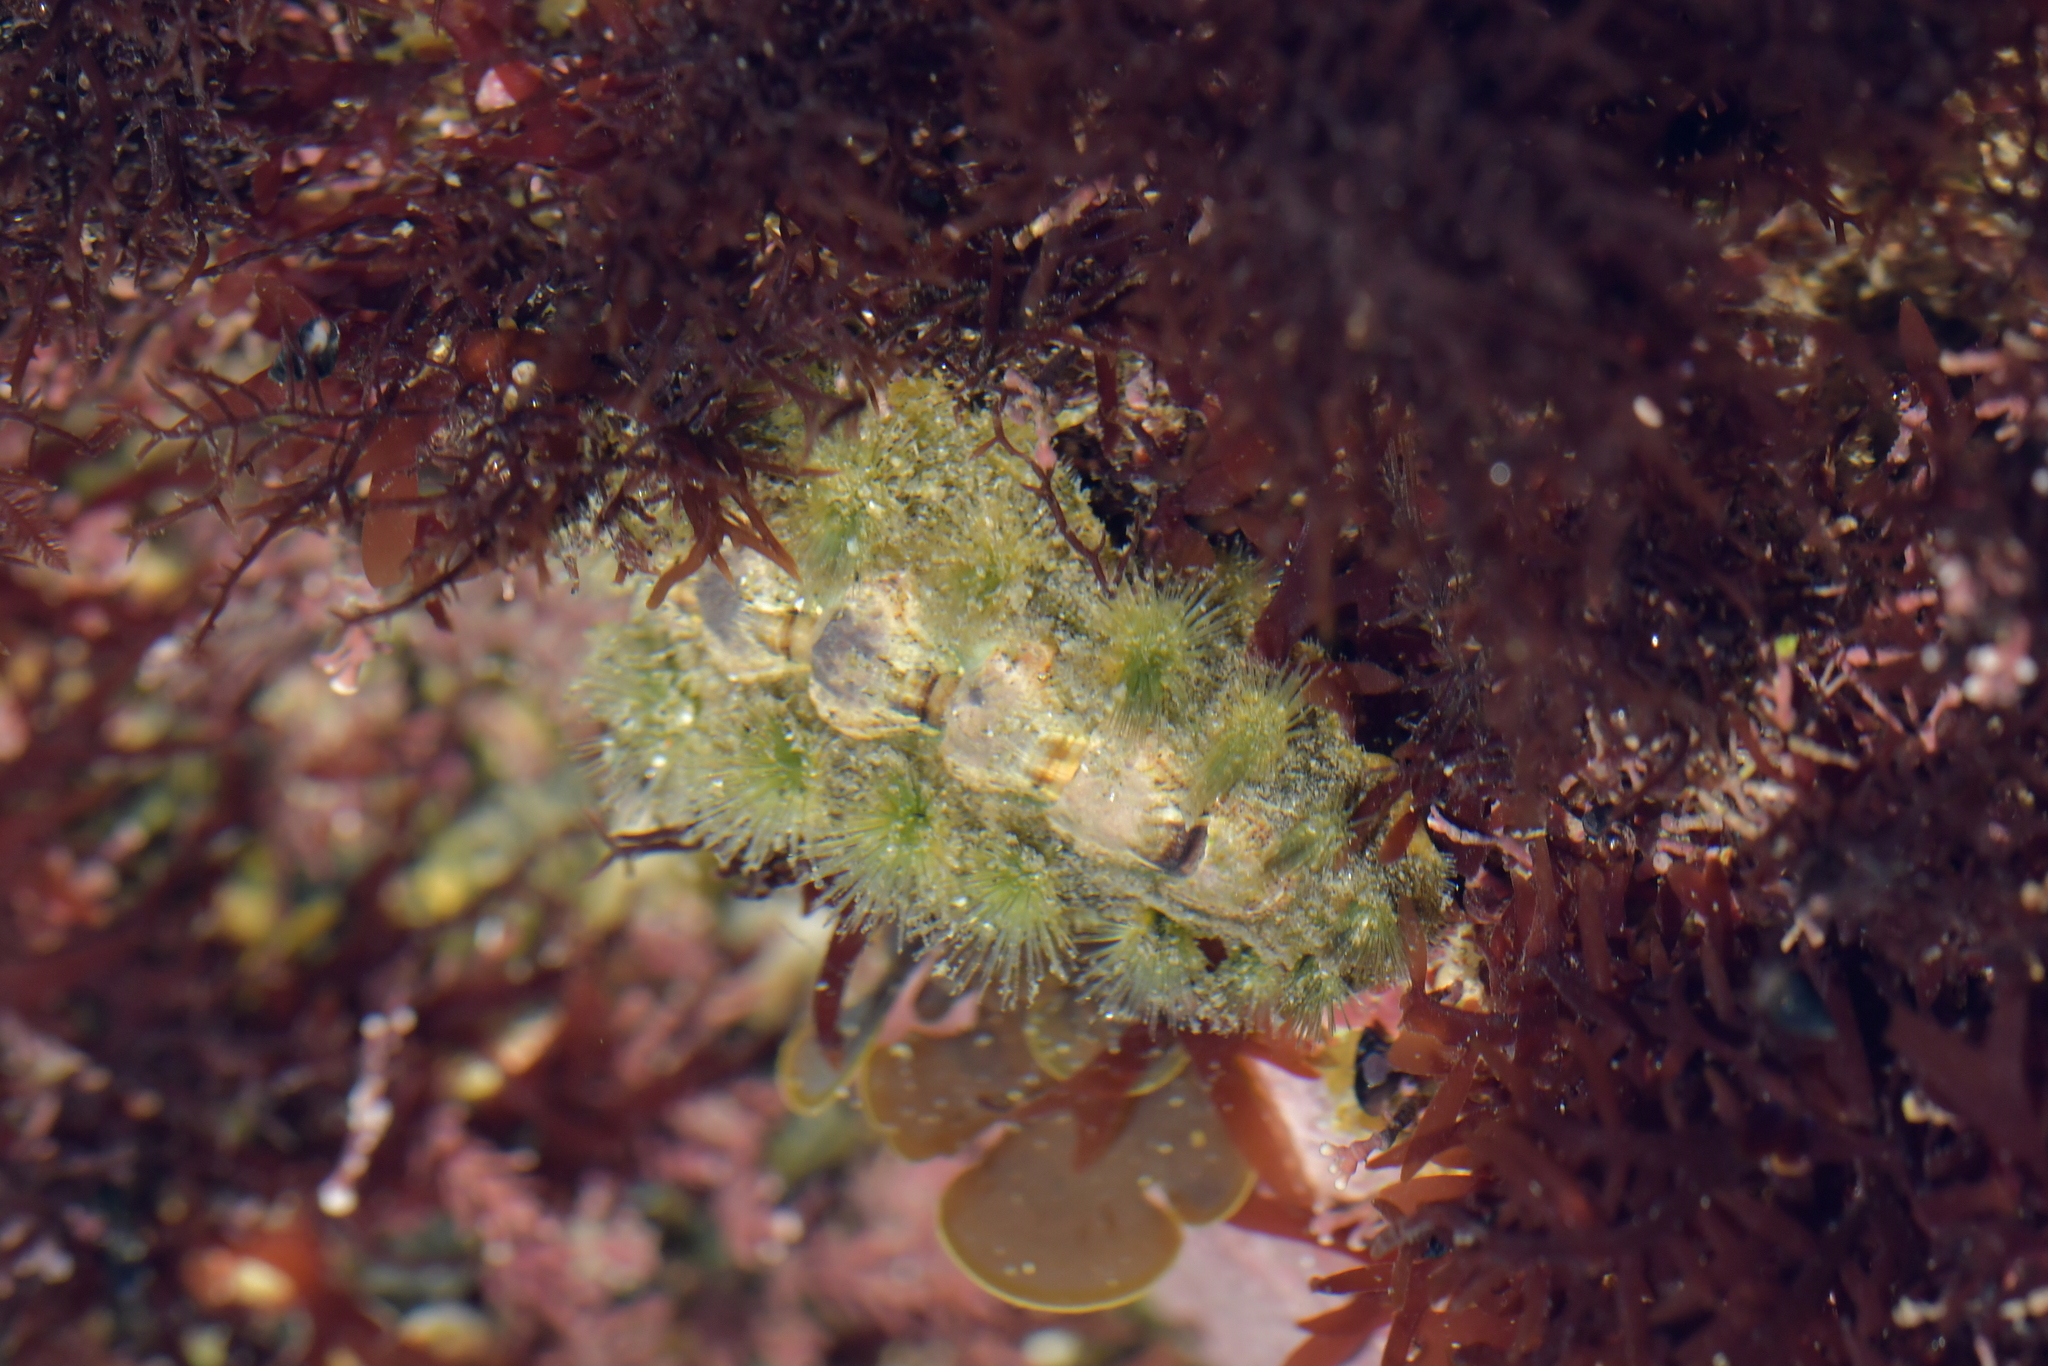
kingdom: Animalia
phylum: Mollusca
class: Polyplacophora
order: Chitonida
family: Acanthochitonidae
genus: Acanthochitona
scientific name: Acanthochitona zelandica
